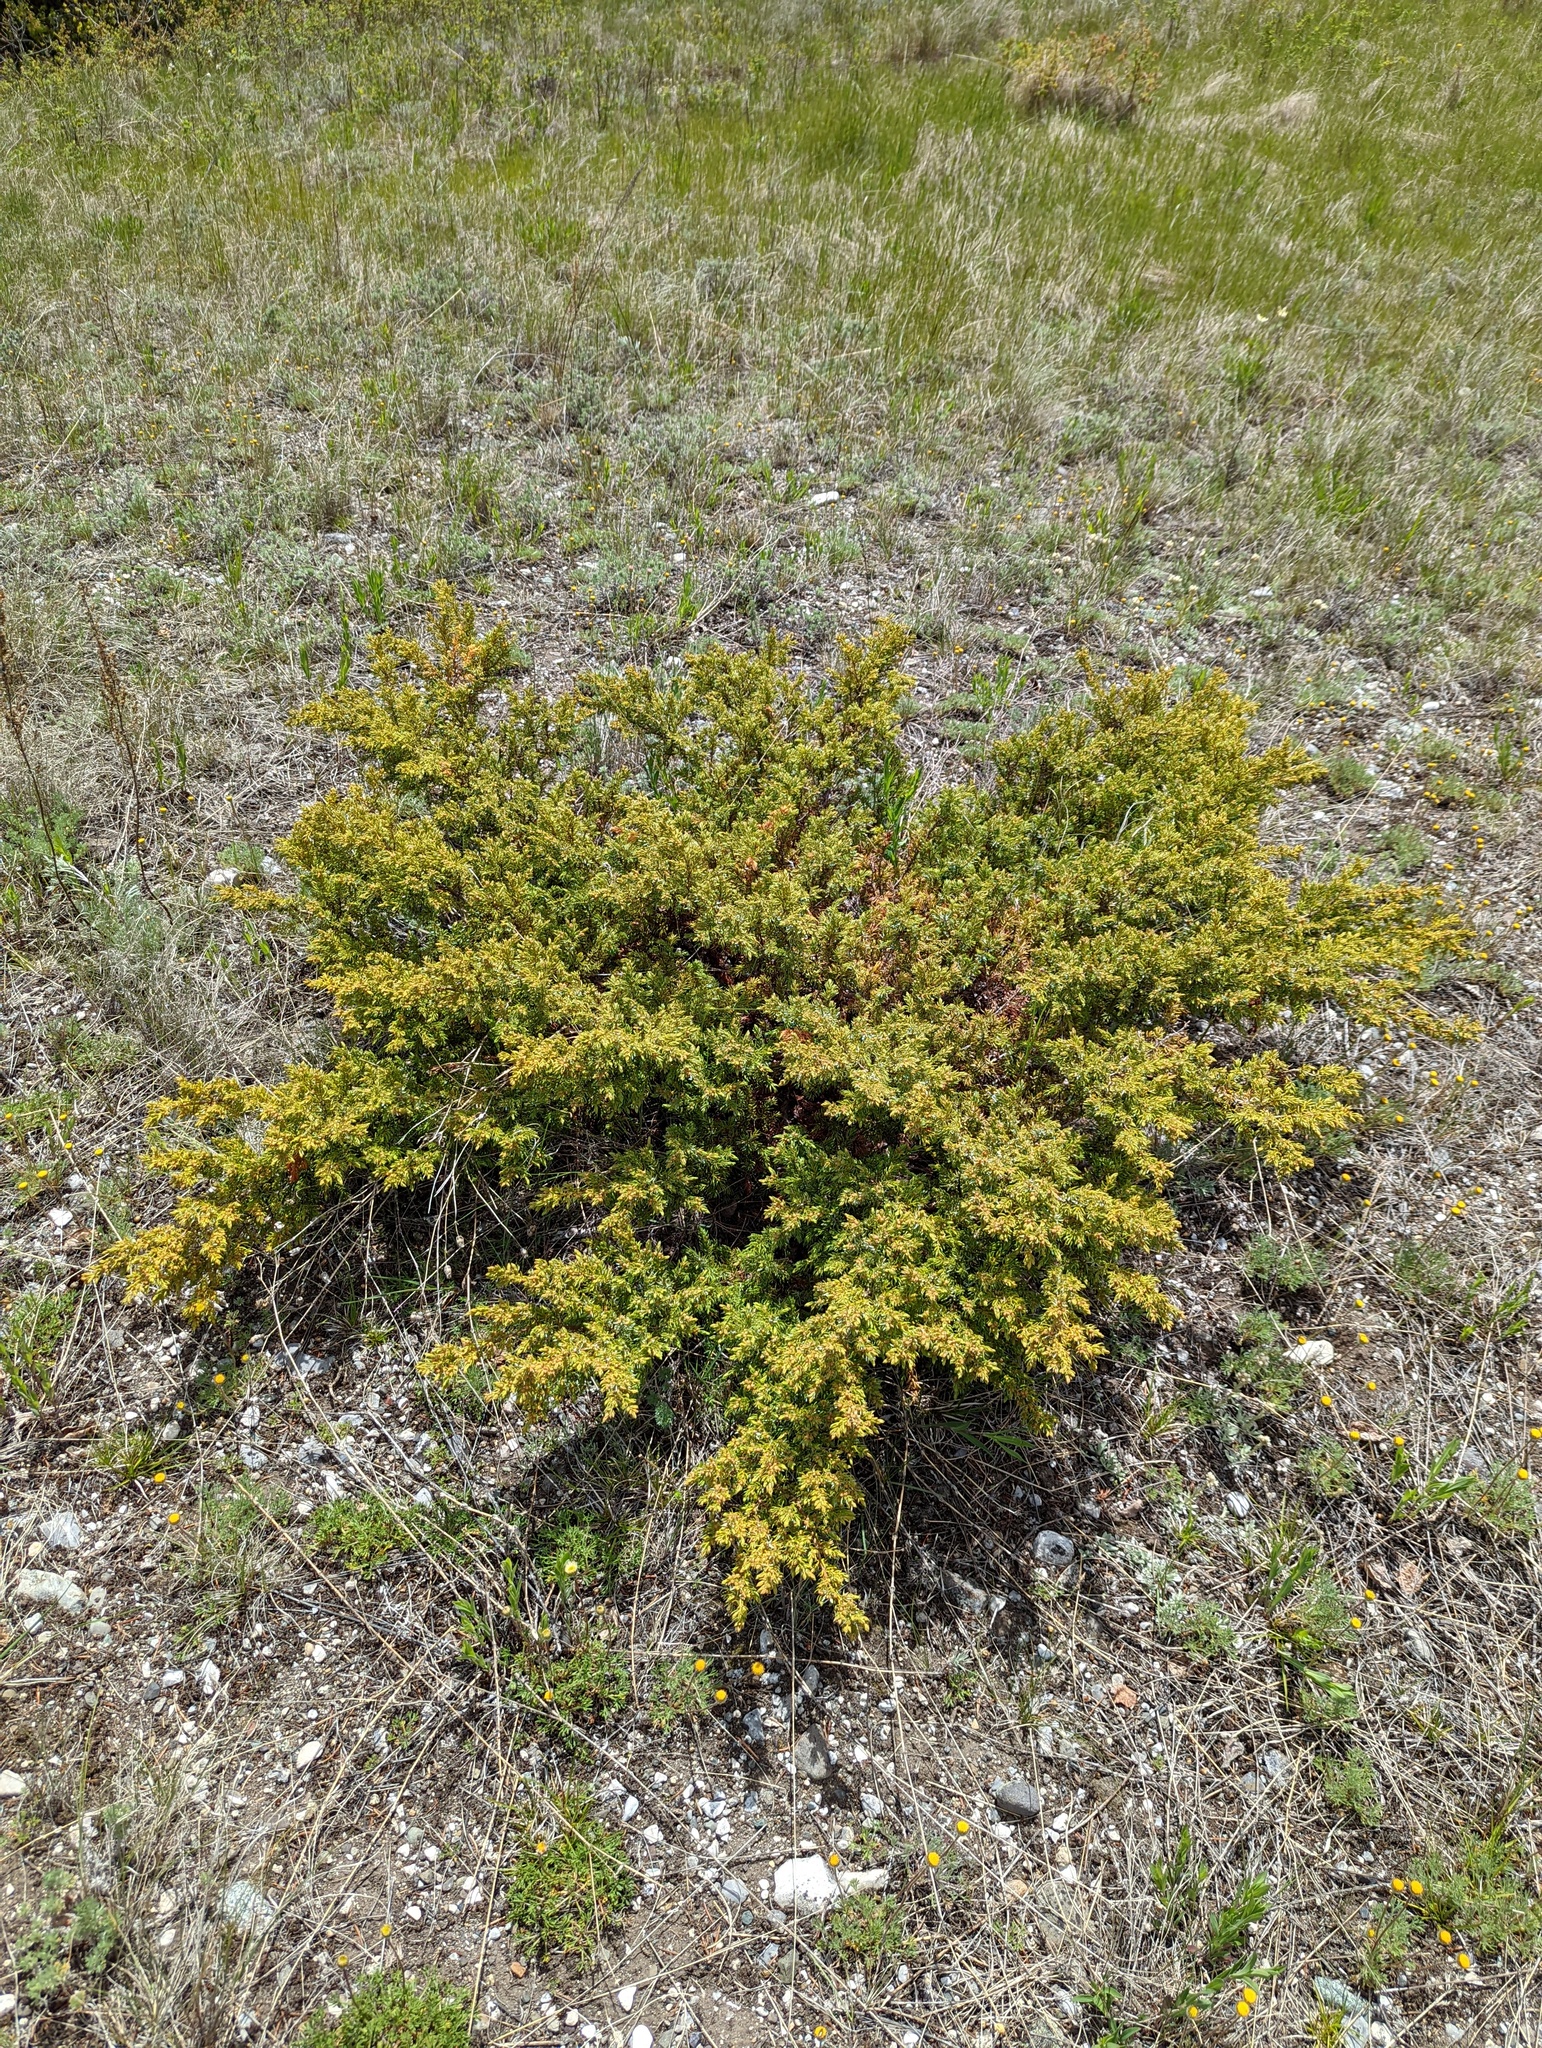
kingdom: Plantae
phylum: Tracheophyta
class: Pinopsida
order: Pinales
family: Cupressaceae
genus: Juniperus
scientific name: Juniperus communis
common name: Common juniper
